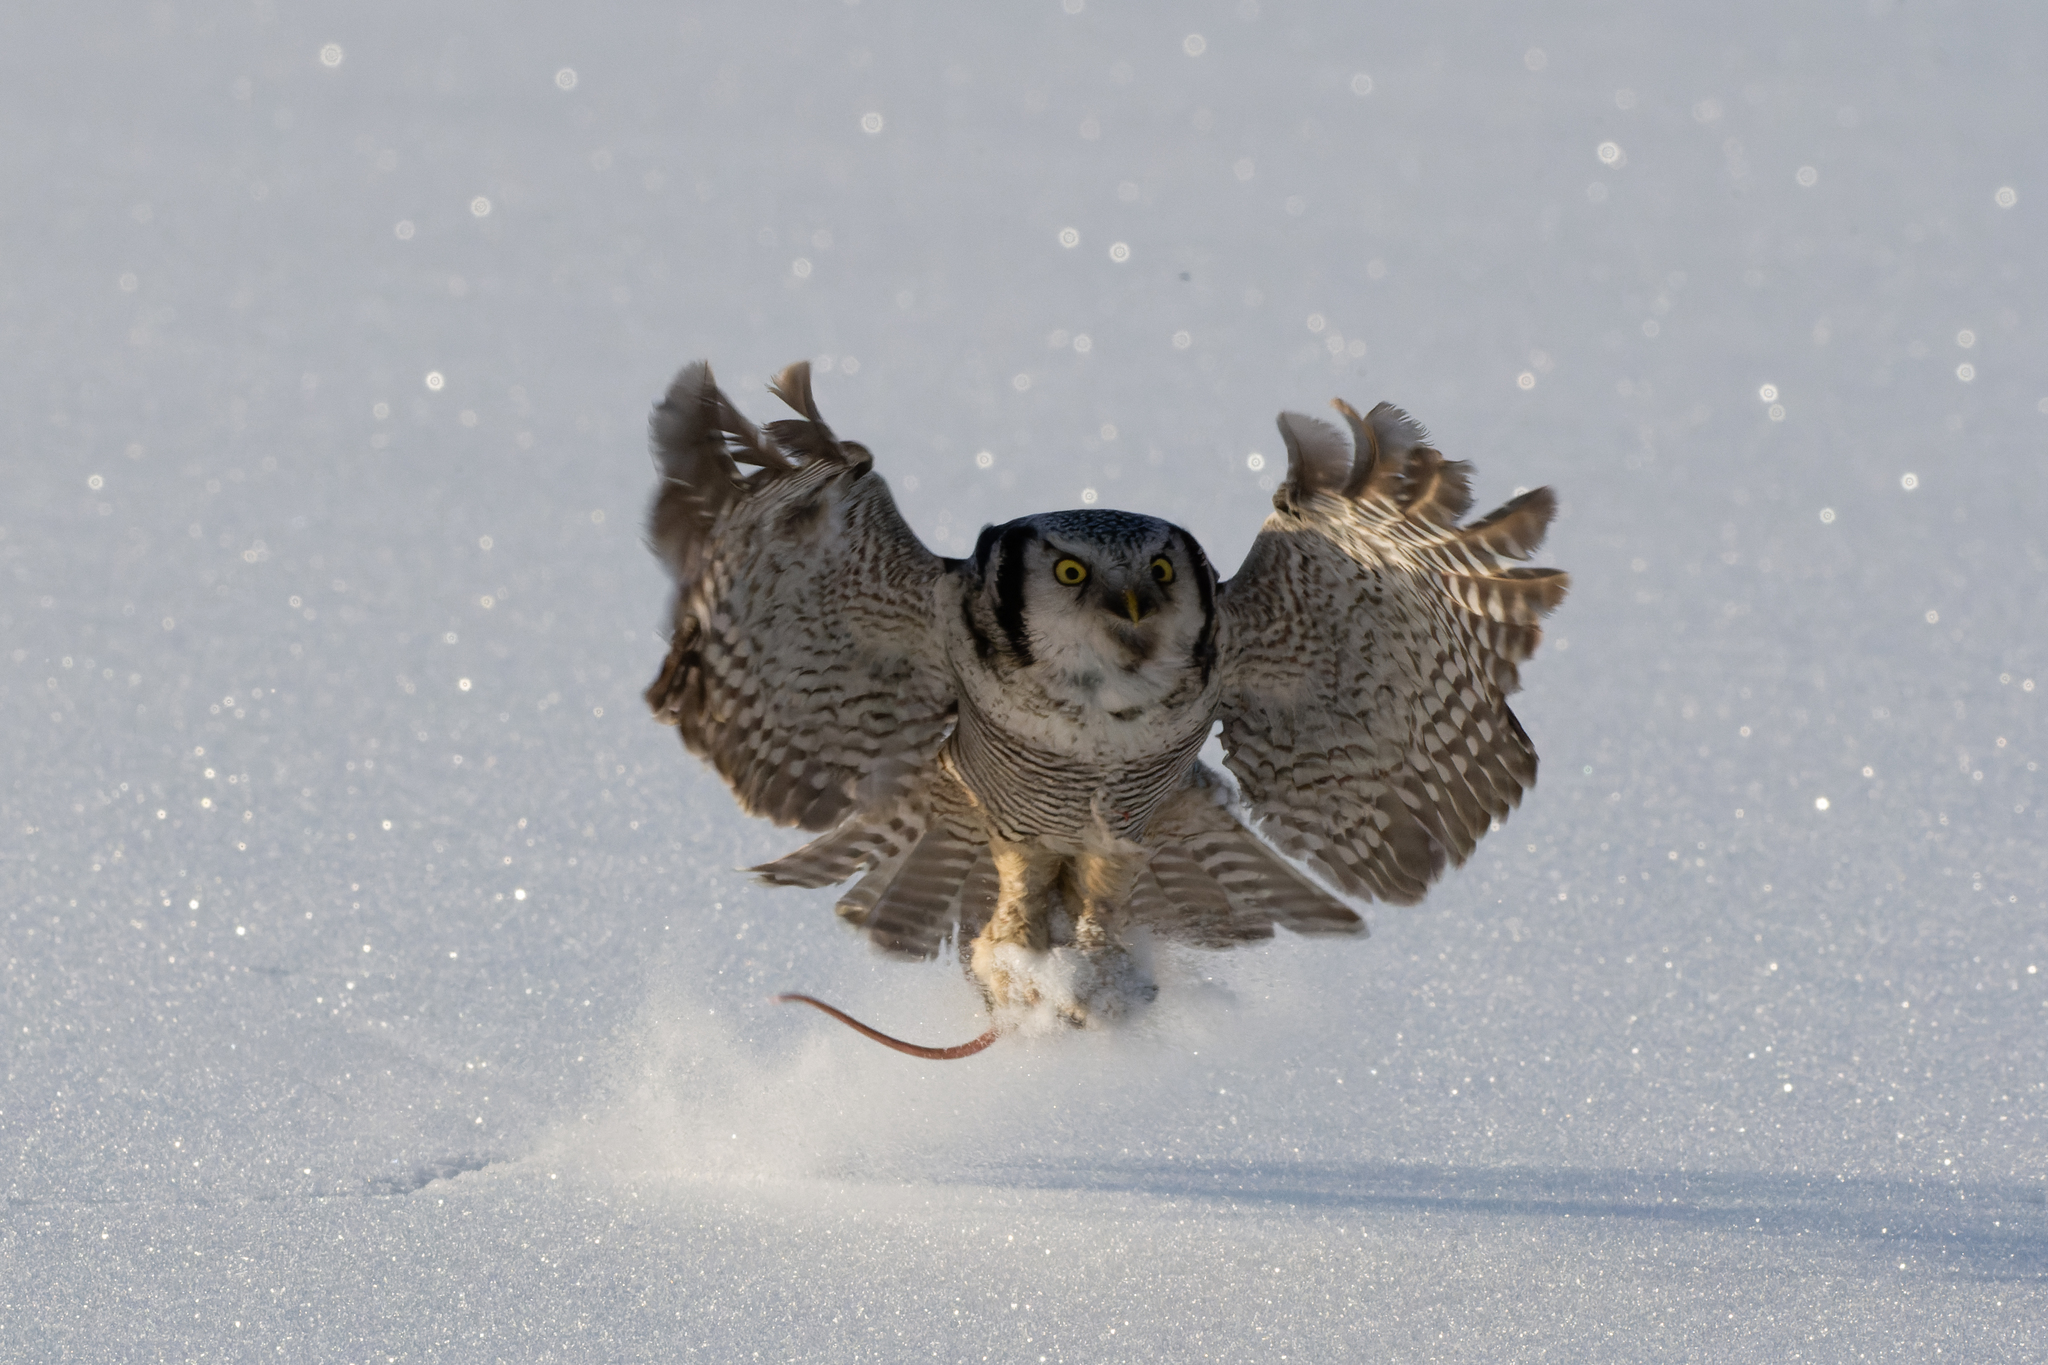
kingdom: Animalia
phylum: Chordata
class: Aves
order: Strigiformes
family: Strigidae
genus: Surnia
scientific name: Surnia ulula
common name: Northern hawk-owl
